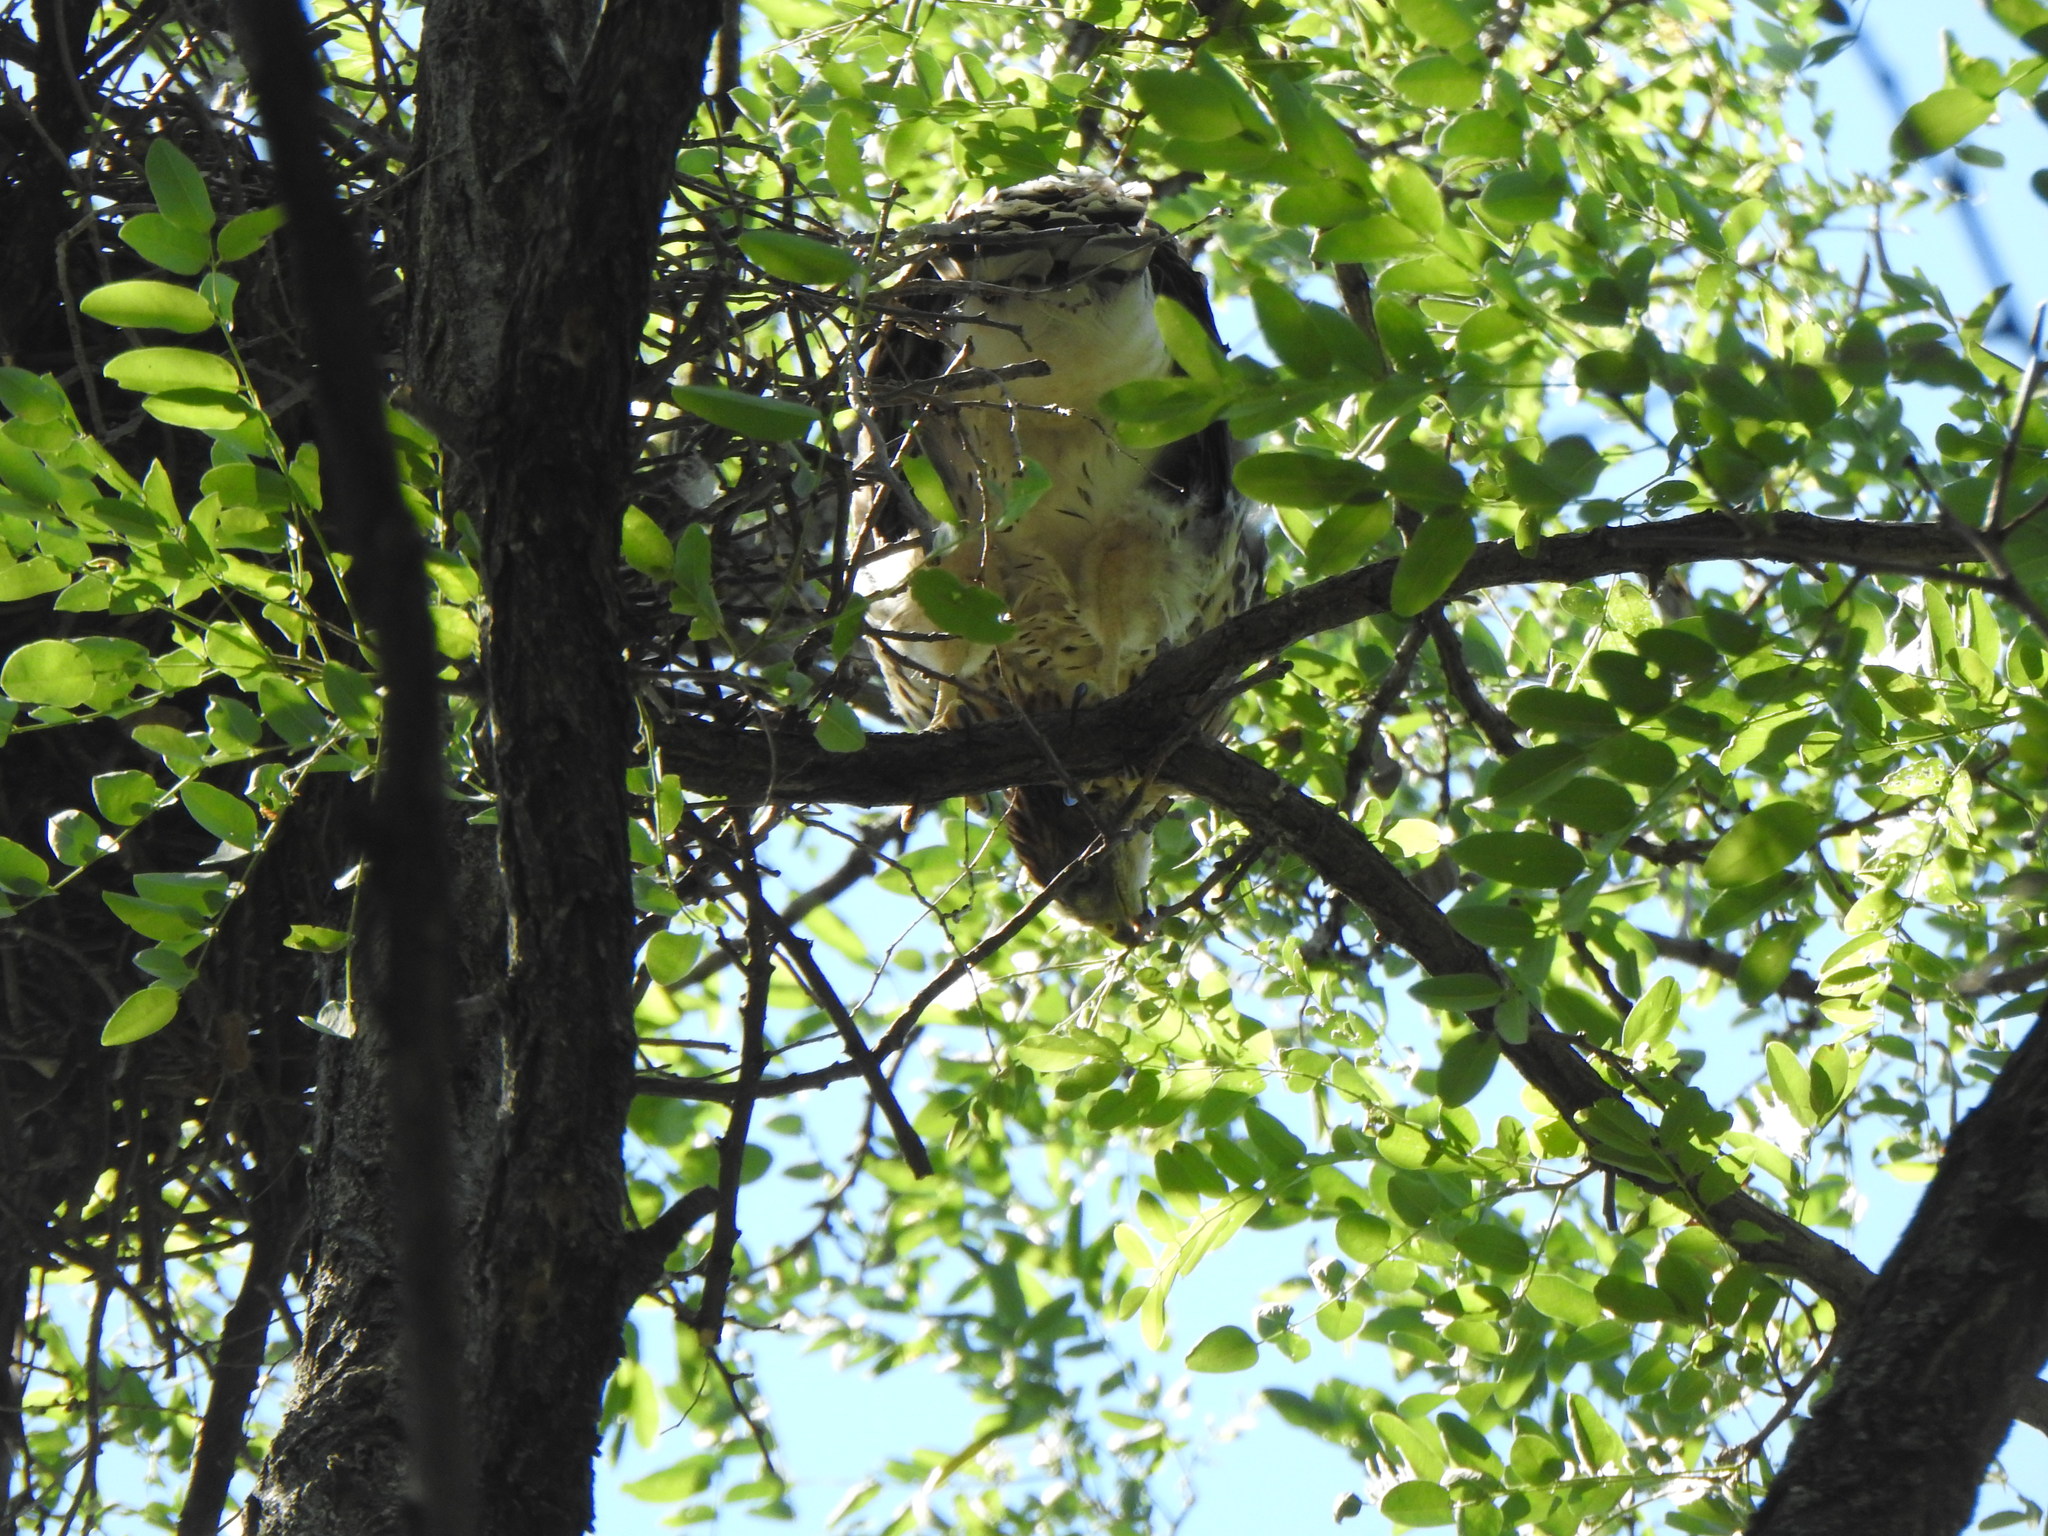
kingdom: Animalia
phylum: Chordata
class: Aves
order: Accipitriformes
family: Accipitridae
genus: Accipiter
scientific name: Accipiter cooperii
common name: Cooper's hawk
